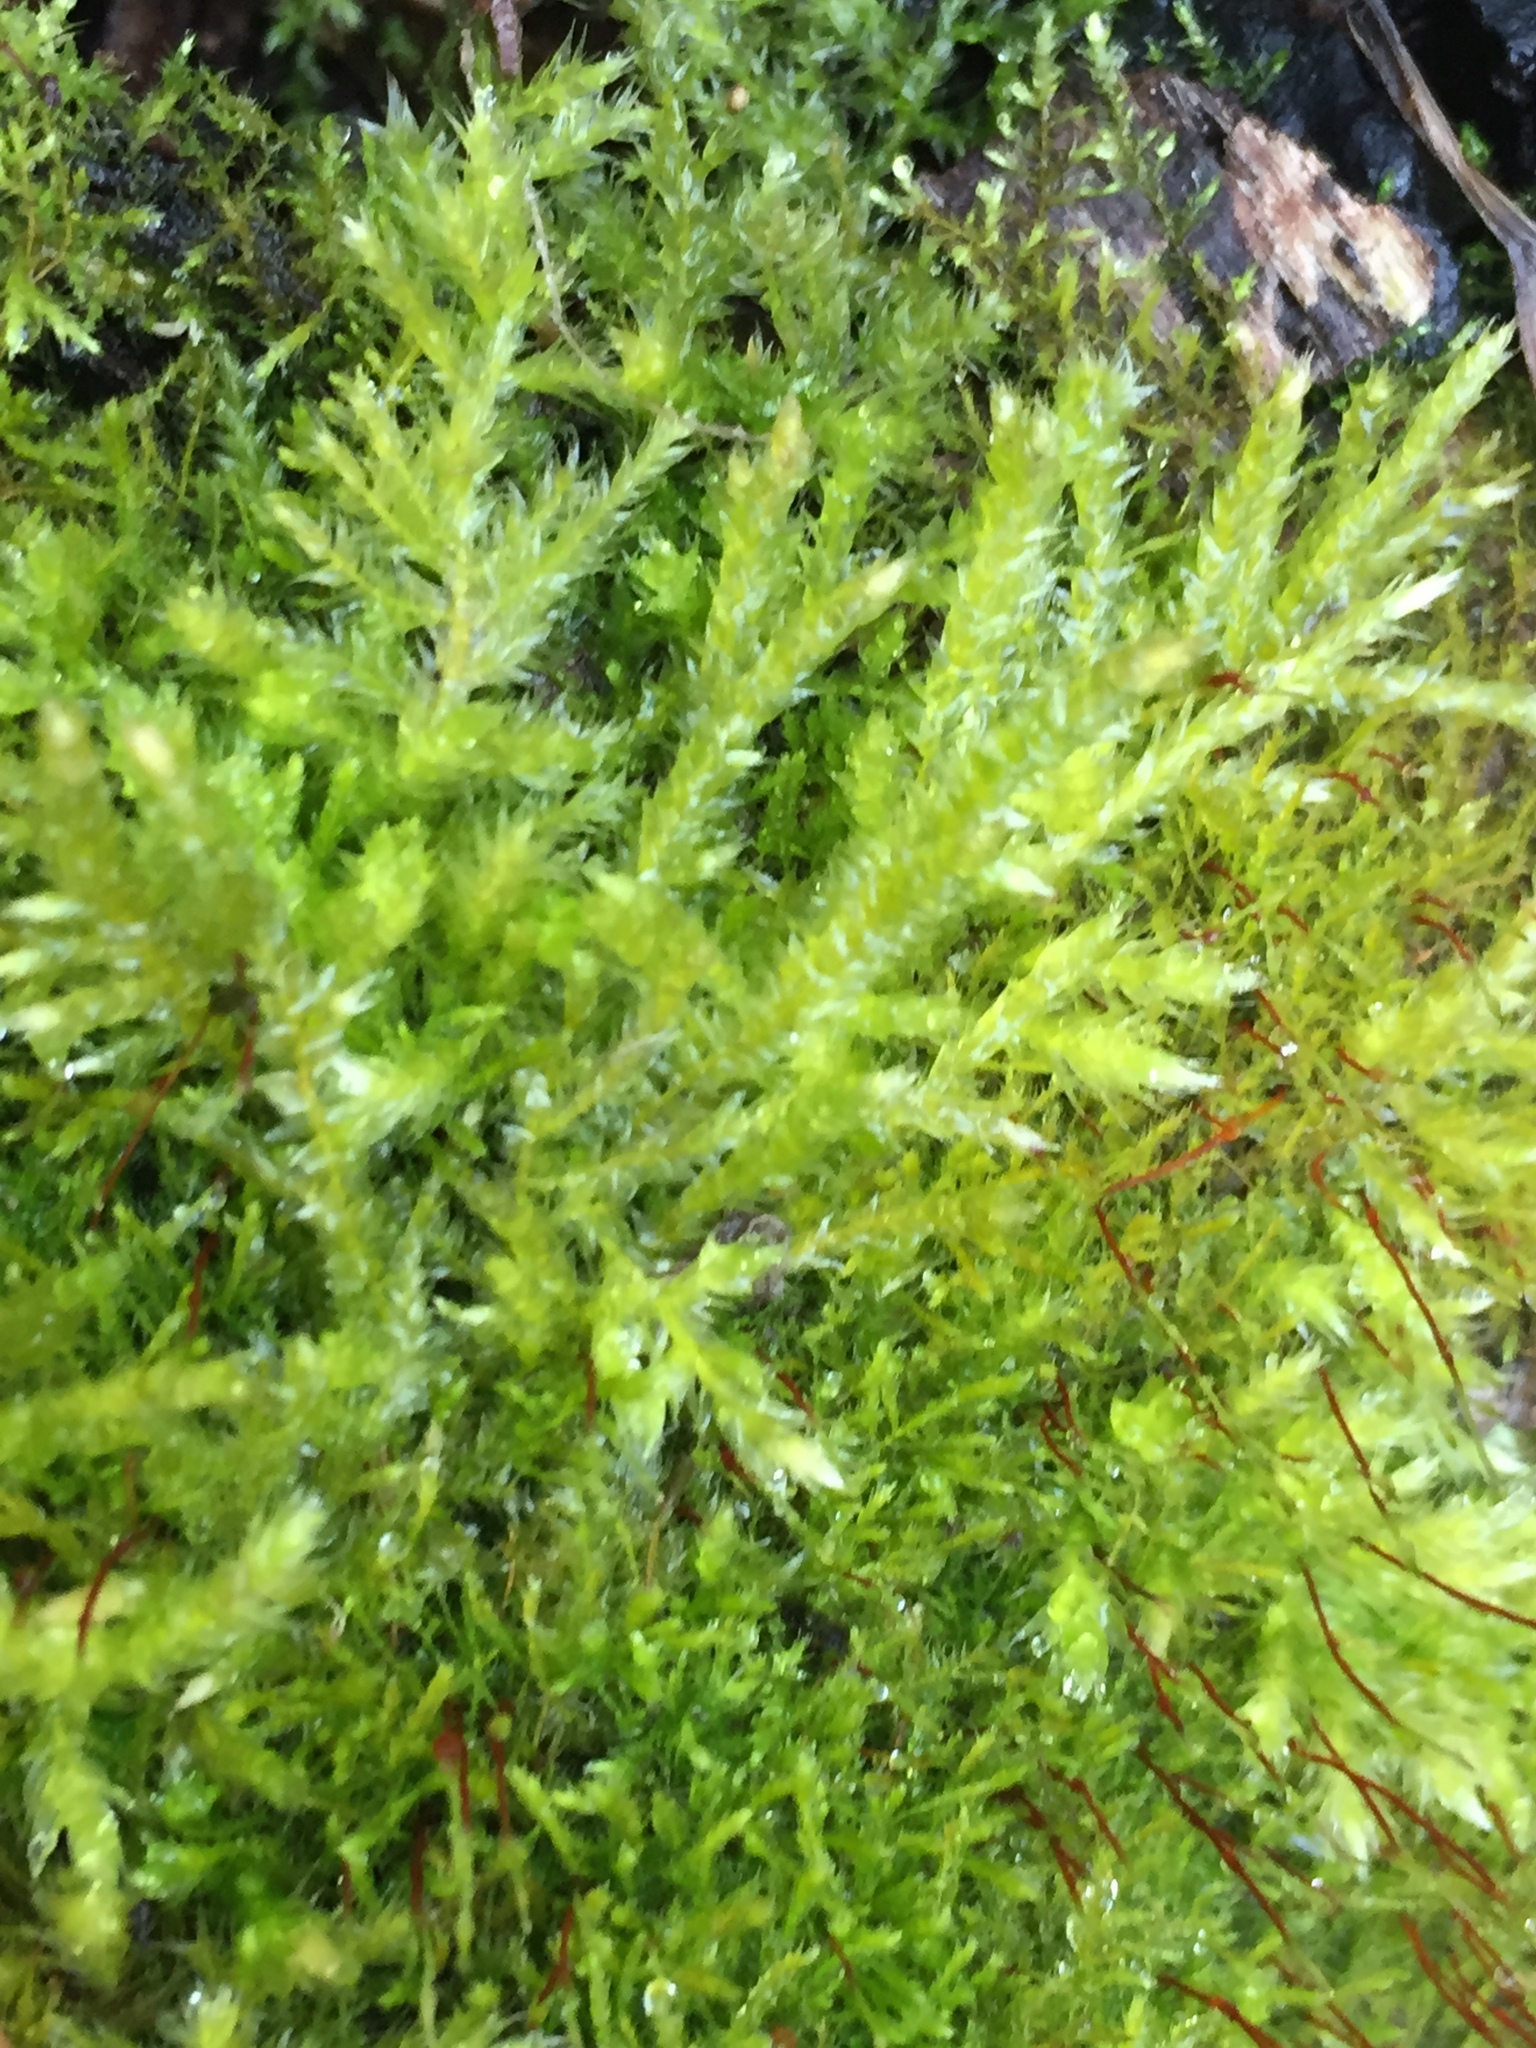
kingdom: Plantae
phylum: Bryophyta
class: Bryopsida
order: Hypnales
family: Amblystegiaceae
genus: Amblystegium
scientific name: Amblystegium serpens
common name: Jurkatzka's feather moss
